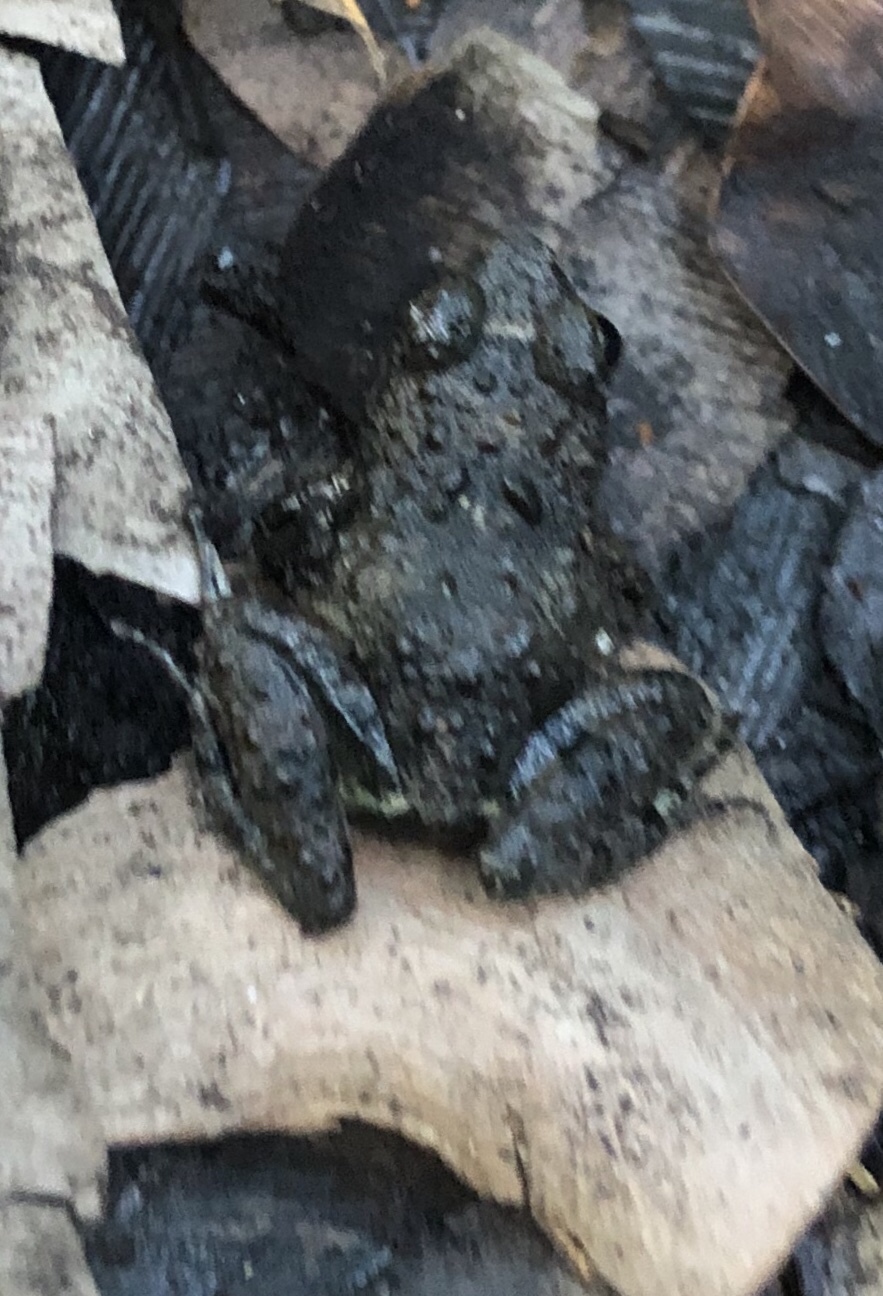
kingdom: Animalia
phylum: Chordata
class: Amphibia
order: Anura
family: Phrynobatrachidae
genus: Phrynobatrachus
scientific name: Phrynobatrachus ungujae
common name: Zanzibar puddle frog
